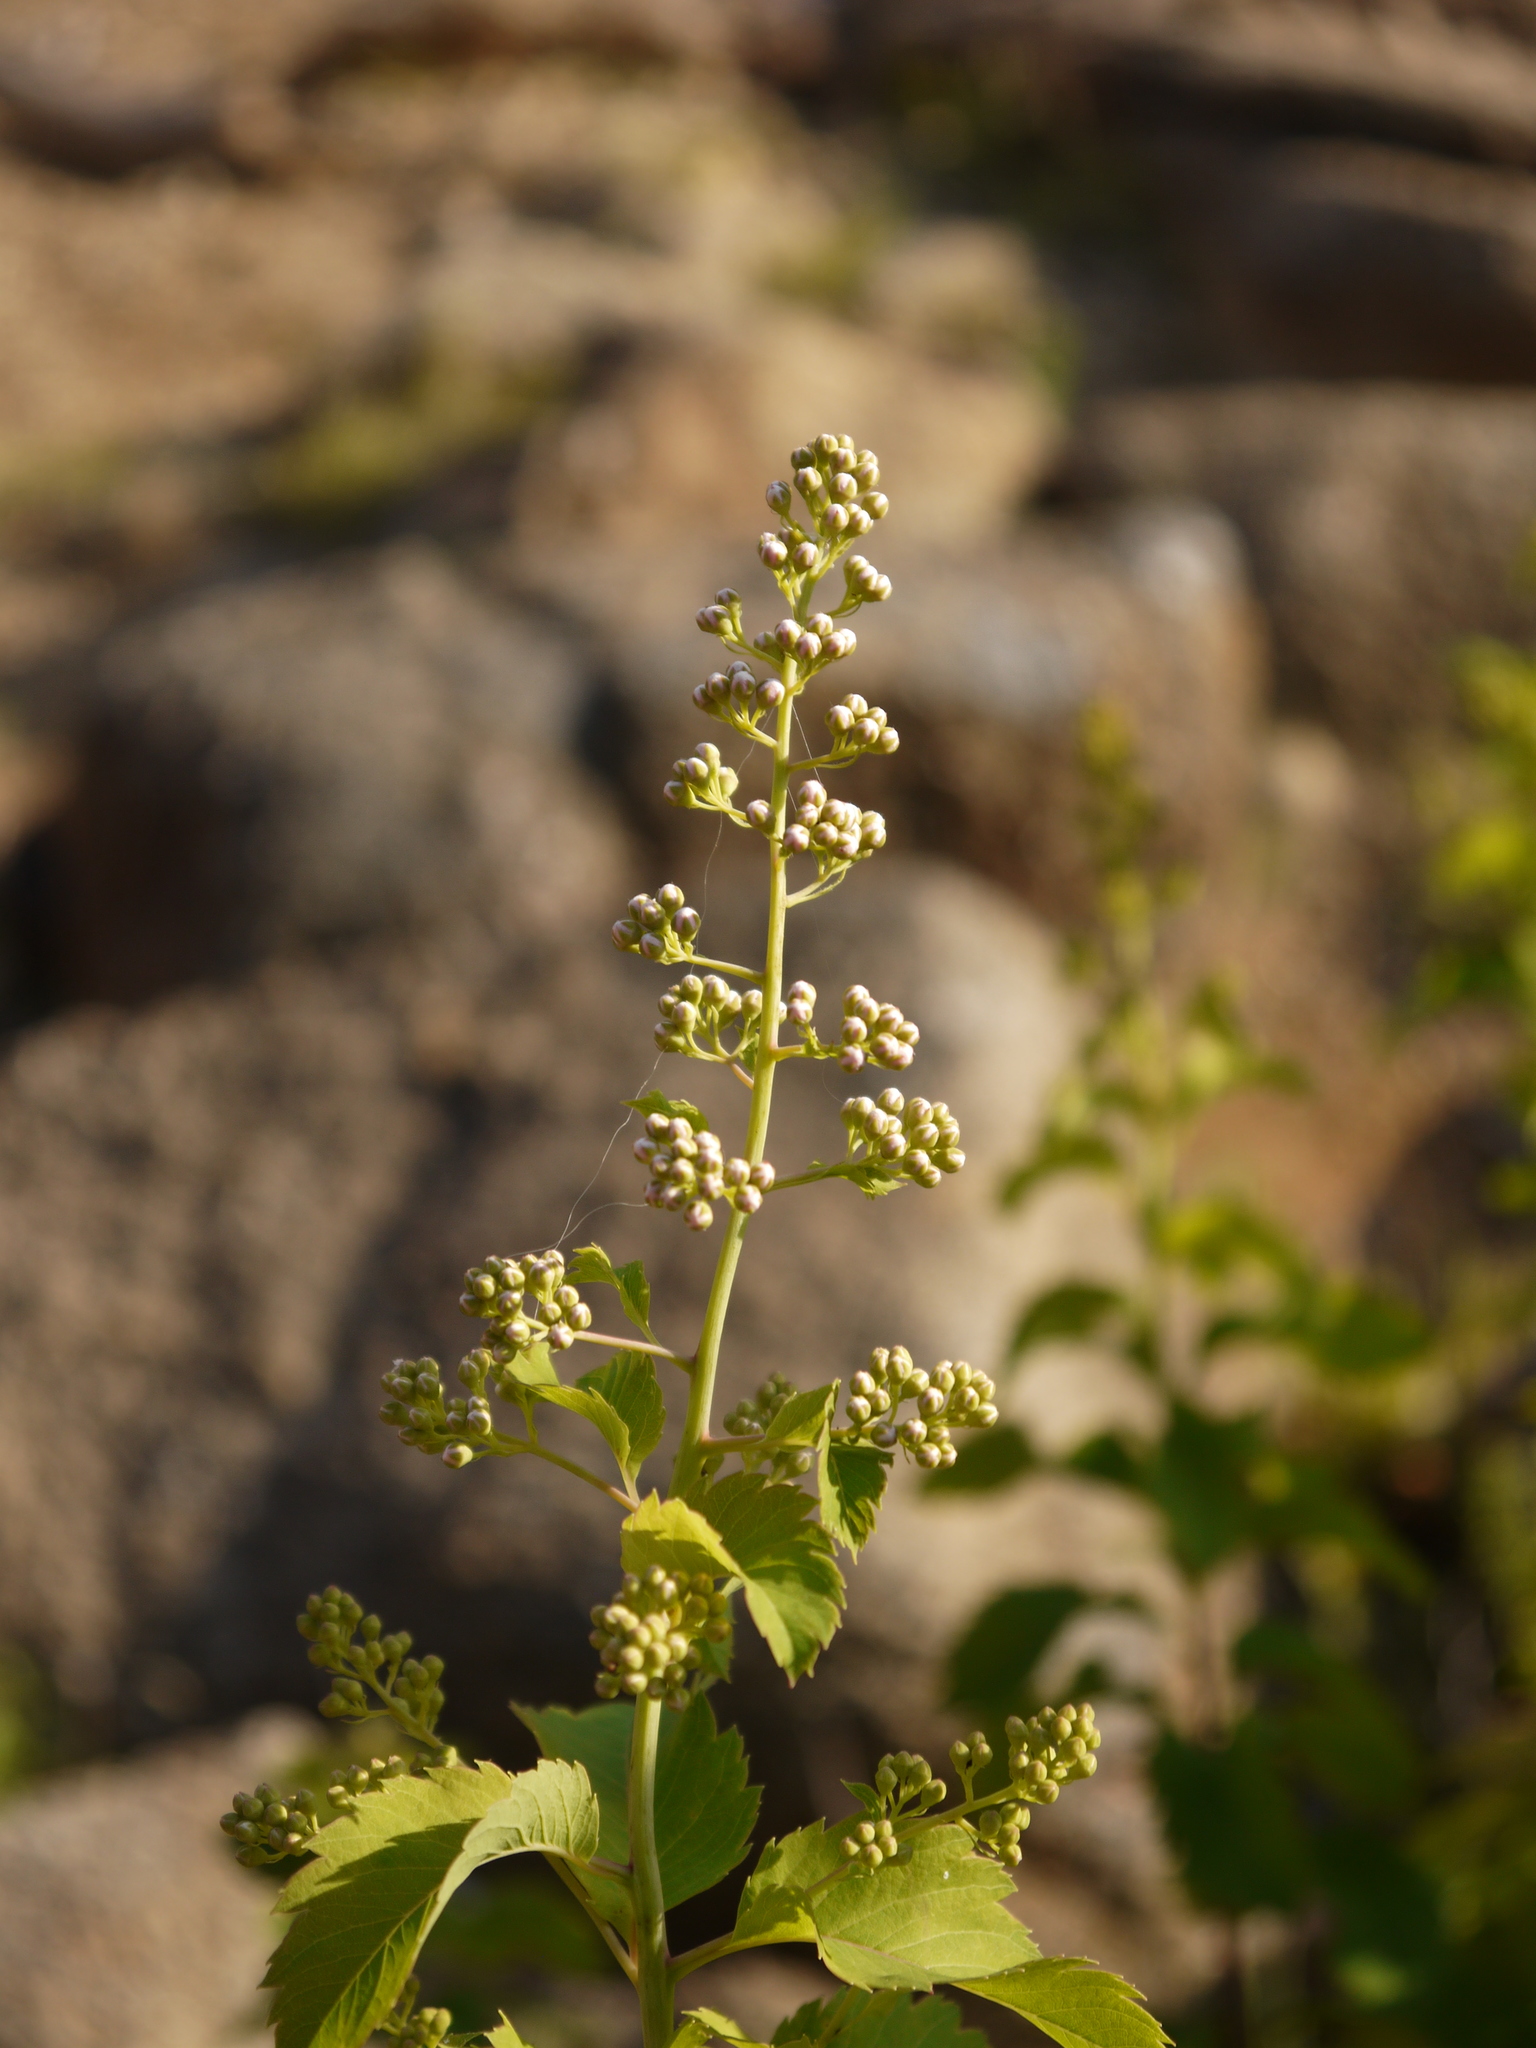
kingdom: Plantae
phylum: Tracheophyta
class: Magnoliopsida
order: Rosales
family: Rosaceae
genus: Spiraea
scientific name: Spiraea alba
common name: Pale bridewort
